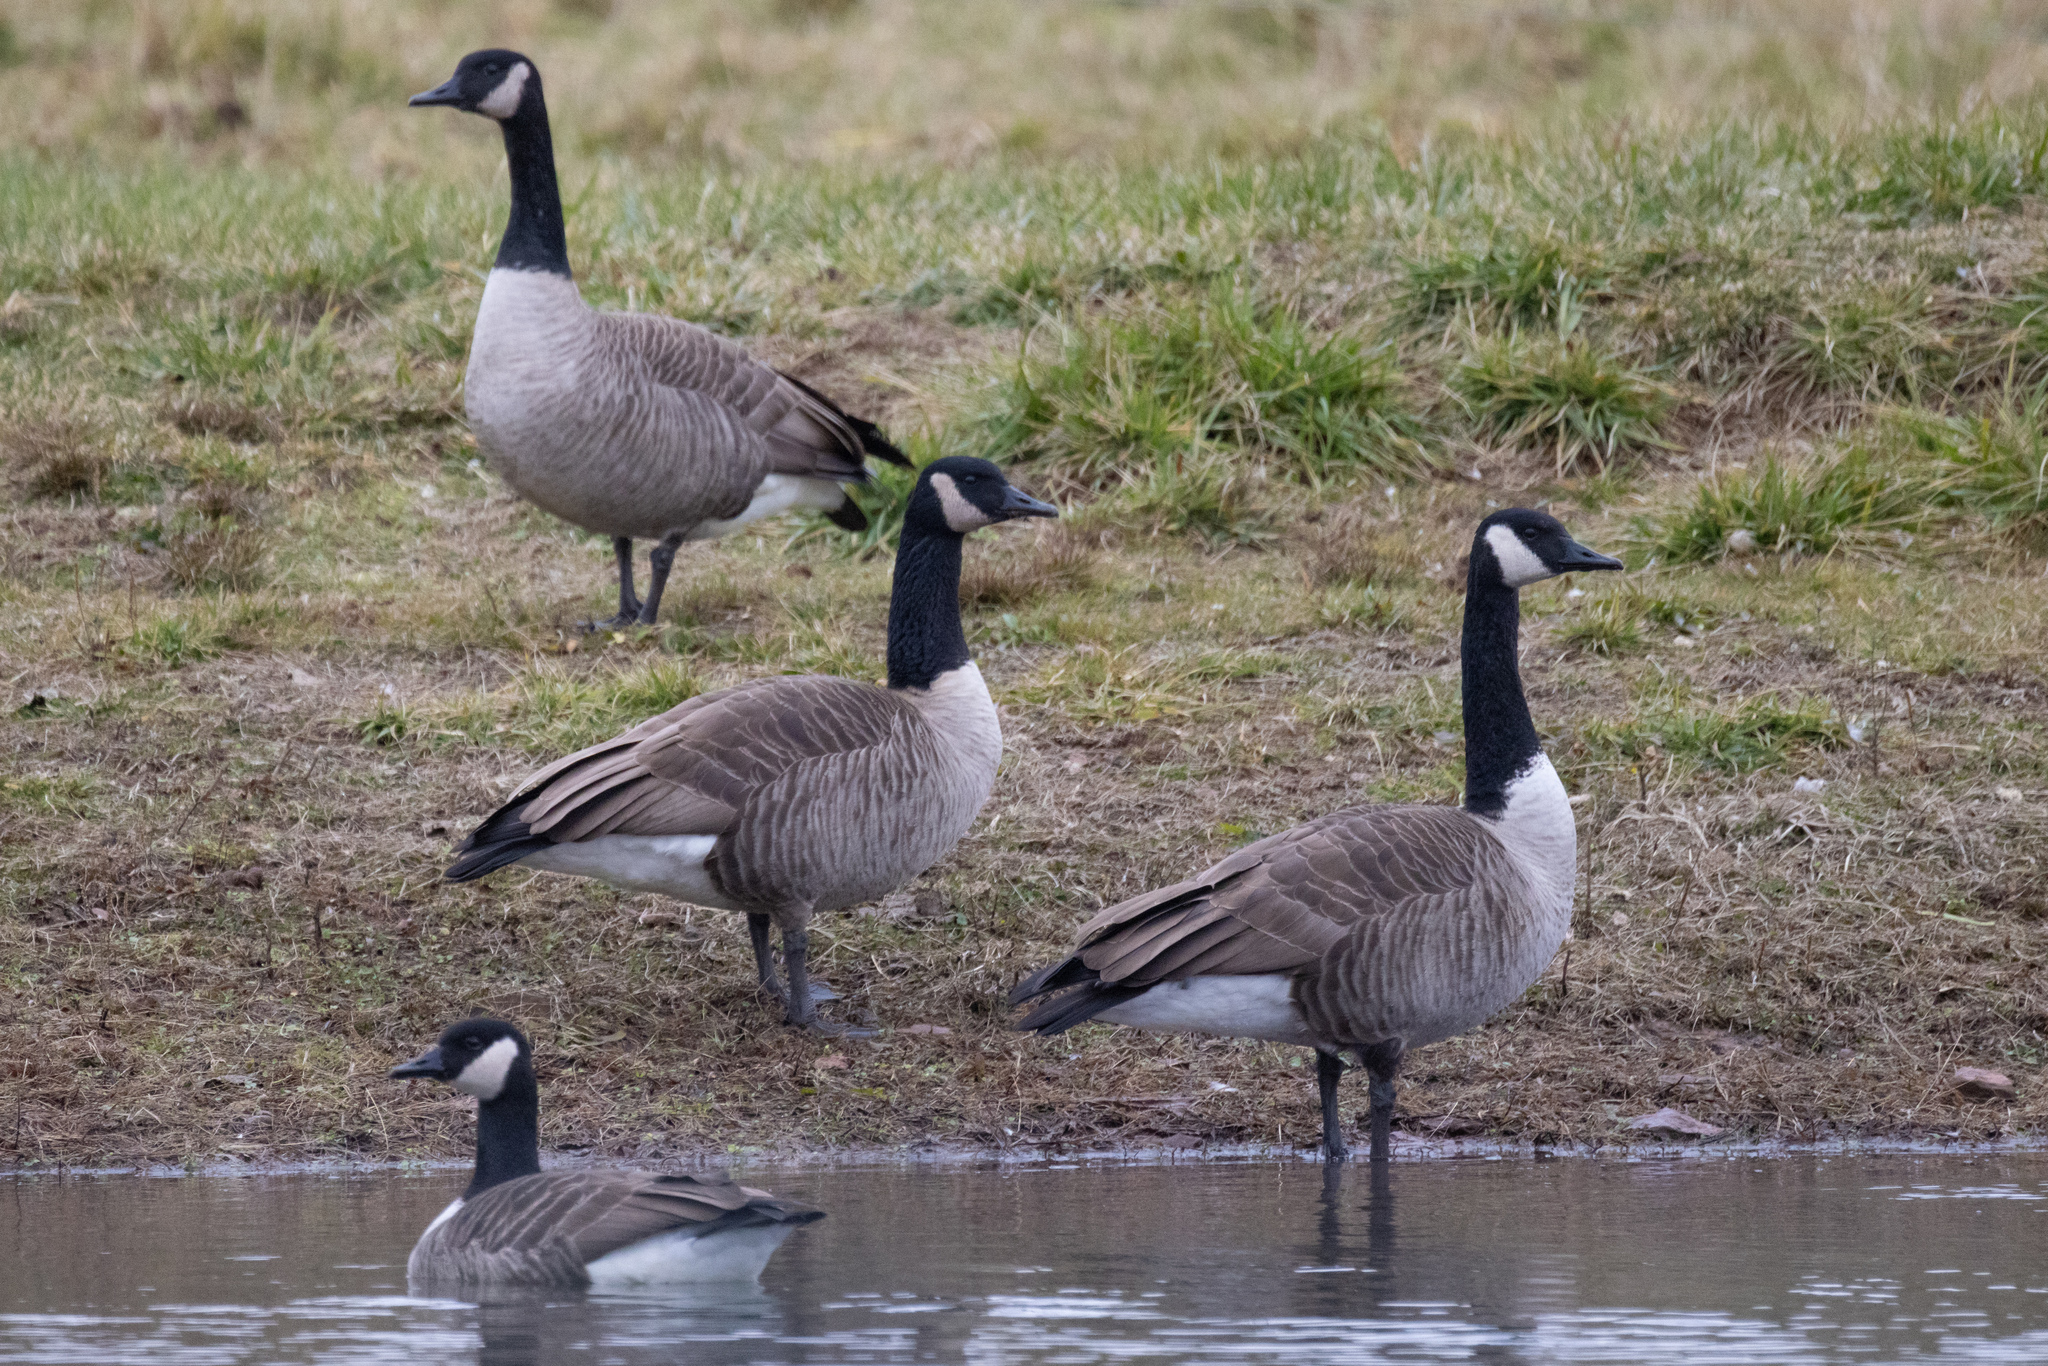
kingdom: Animalia
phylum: Chordata
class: Aves
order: Anseriformes
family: Anatidae
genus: Branta
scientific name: Branta canadensis
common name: Canada goose
